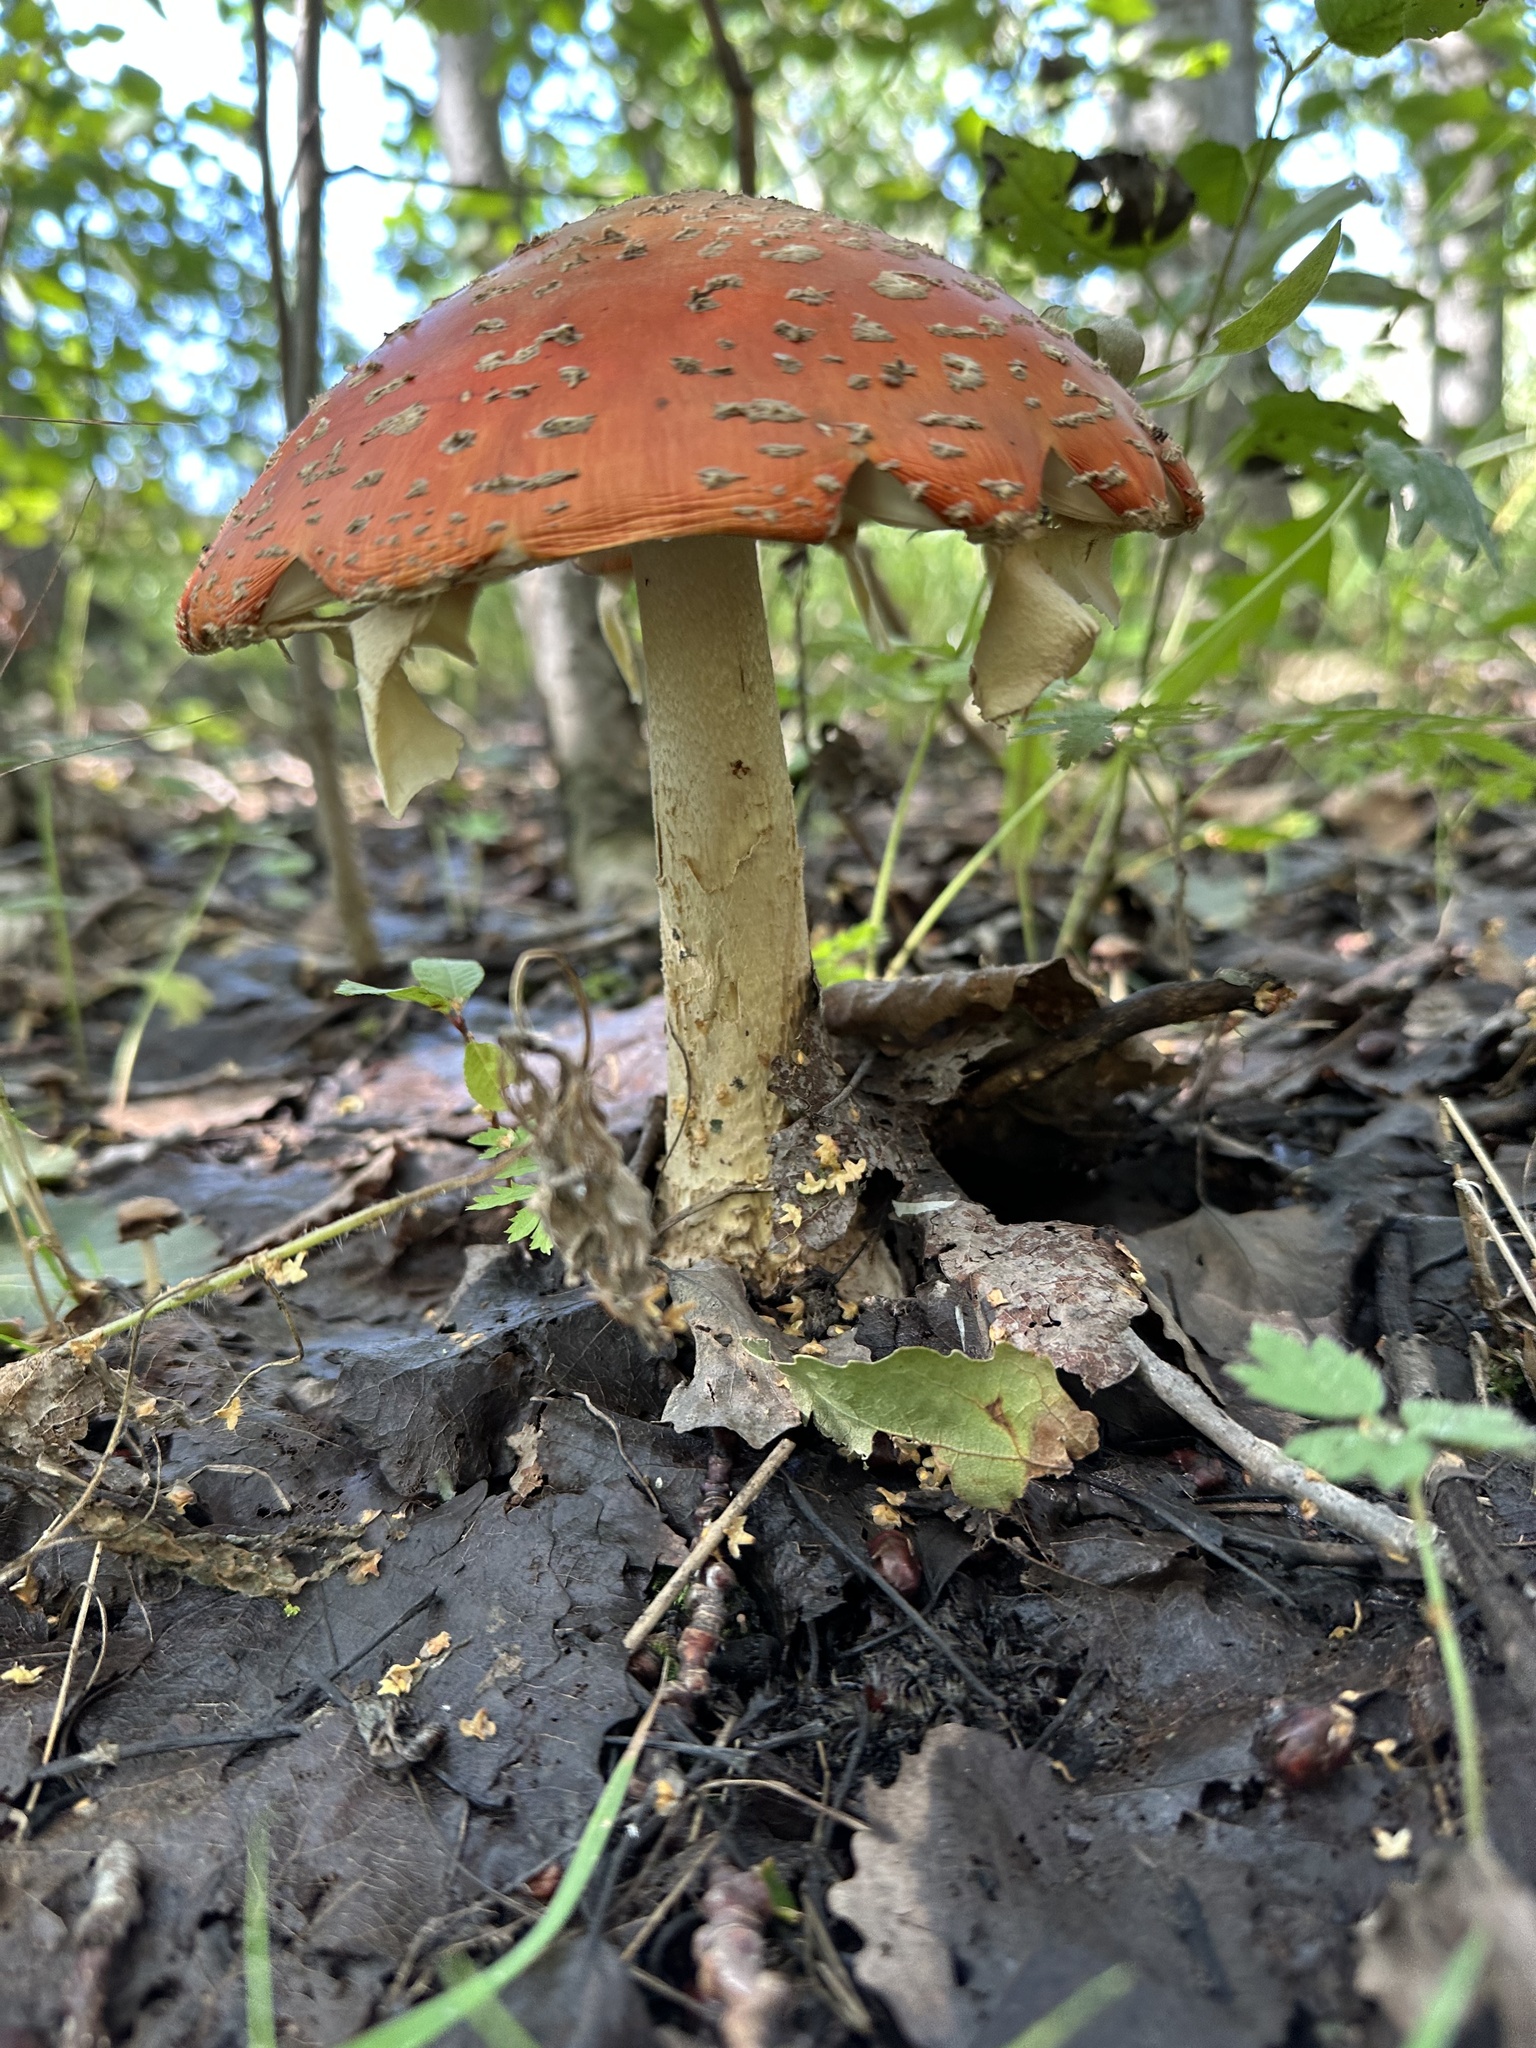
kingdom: Fungi
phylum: Basidiomycota
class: Agaricomycetes
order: Agaricales
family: Amanitaceae
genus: Amanita
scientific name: Amanita muscaria
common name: Fly agaric
